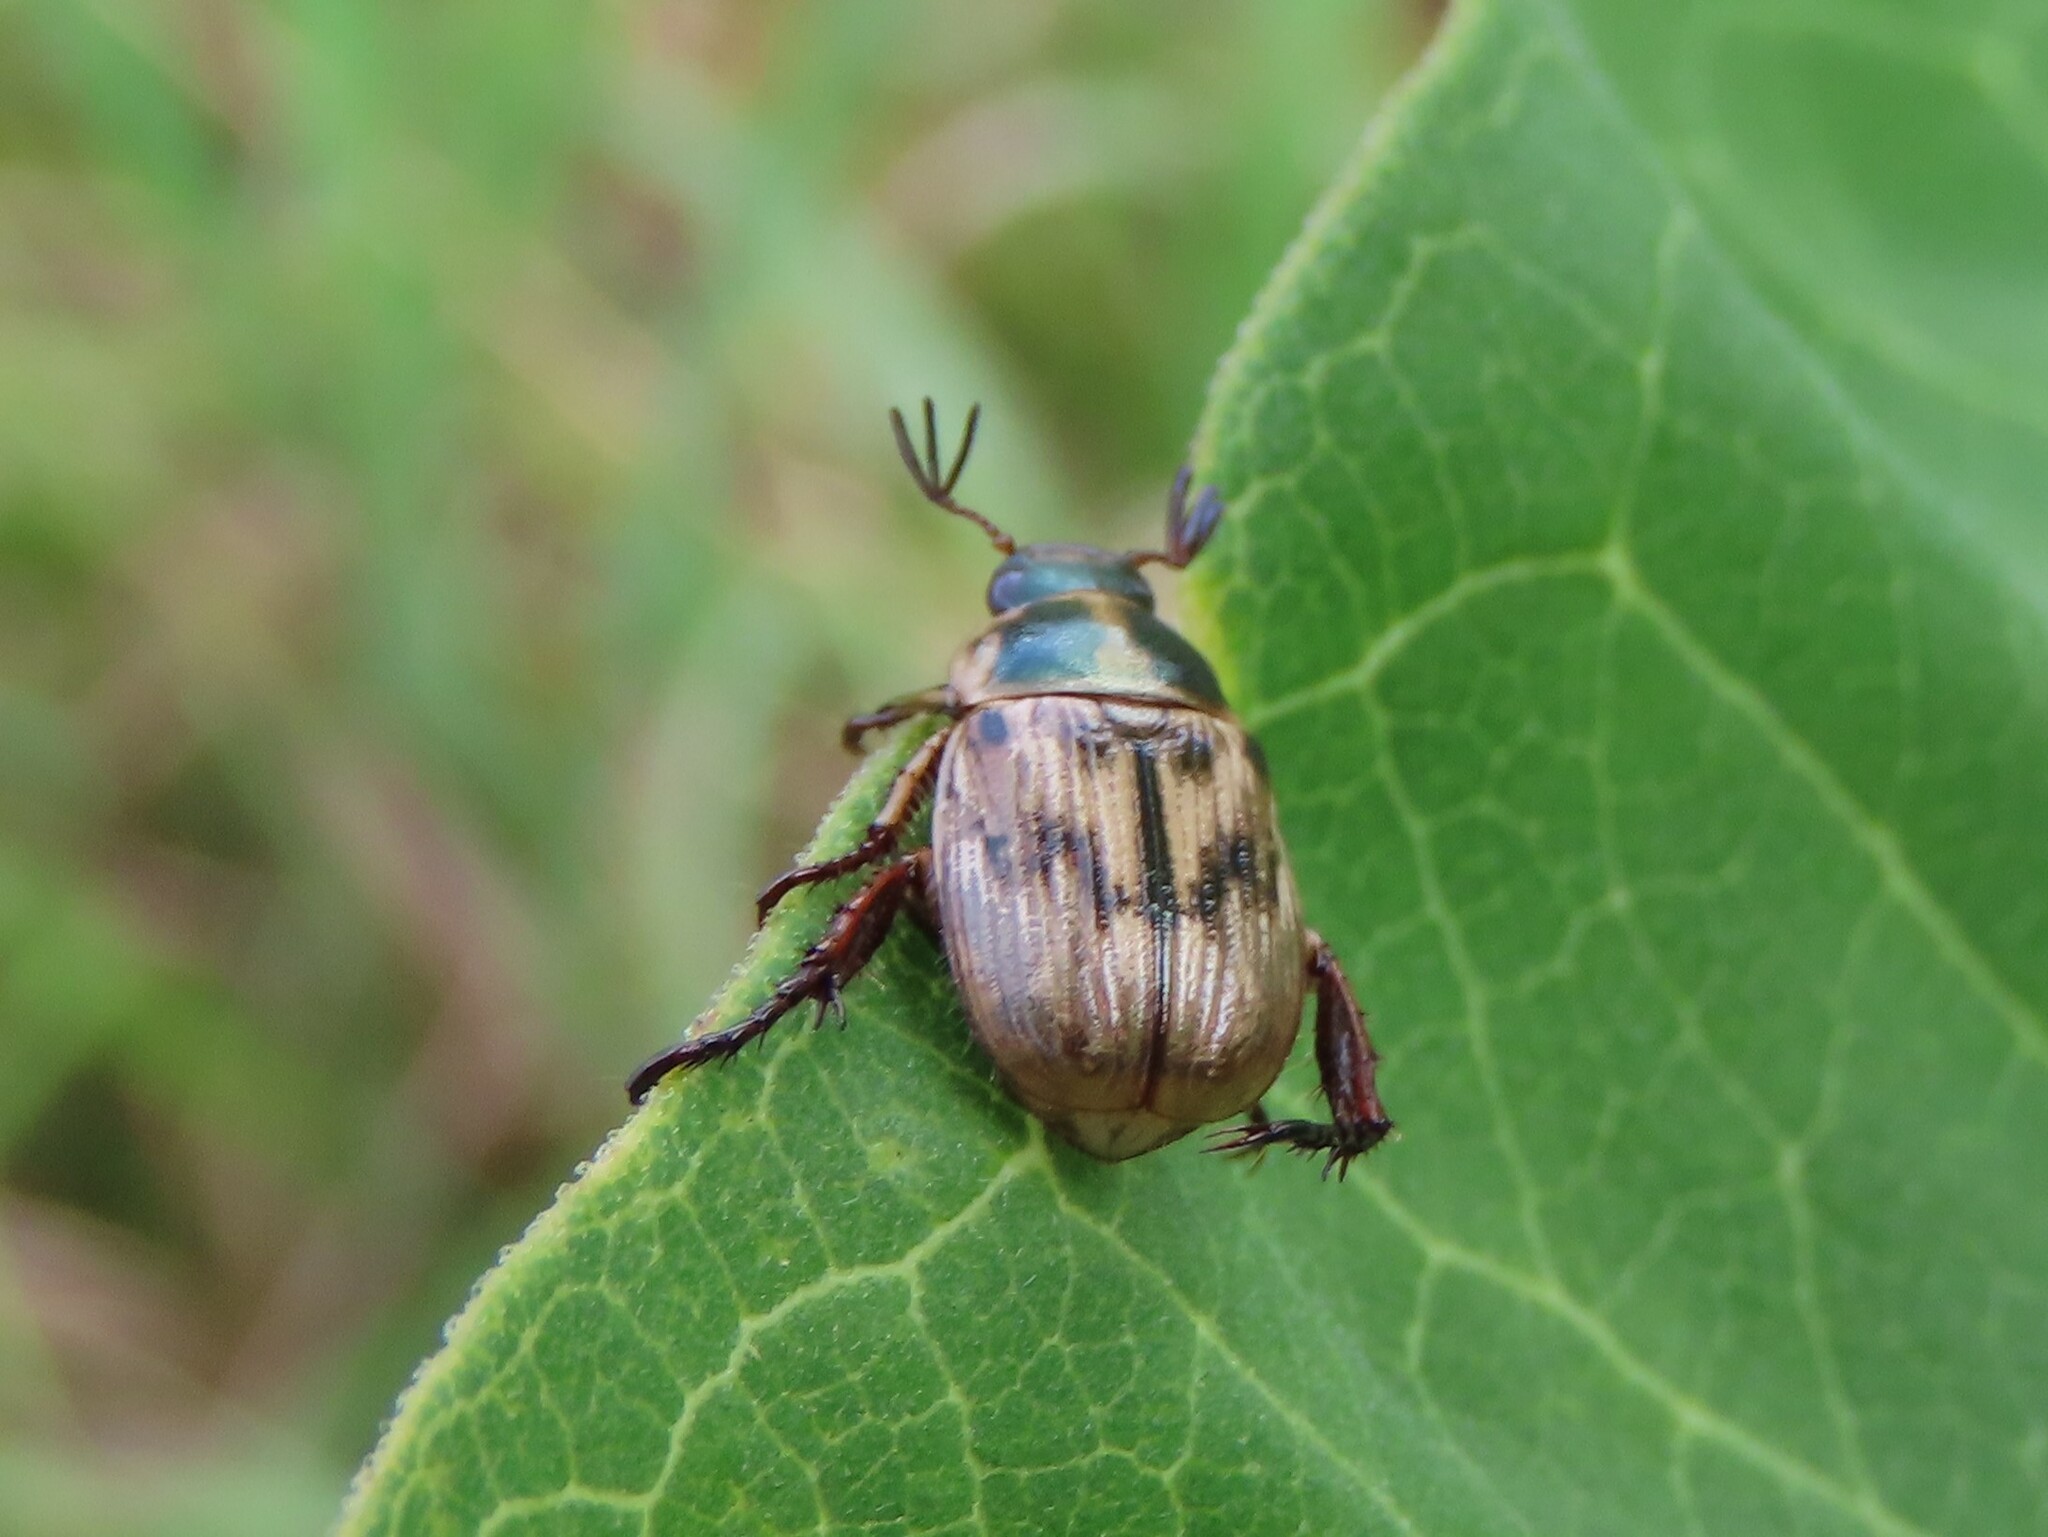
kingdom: Animalia
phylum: Arthropoda
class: Insecta
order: Coleoptera
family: Scarabaeidae
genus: Exomala
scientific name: Exomala orientalis
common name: Oriental beetle
